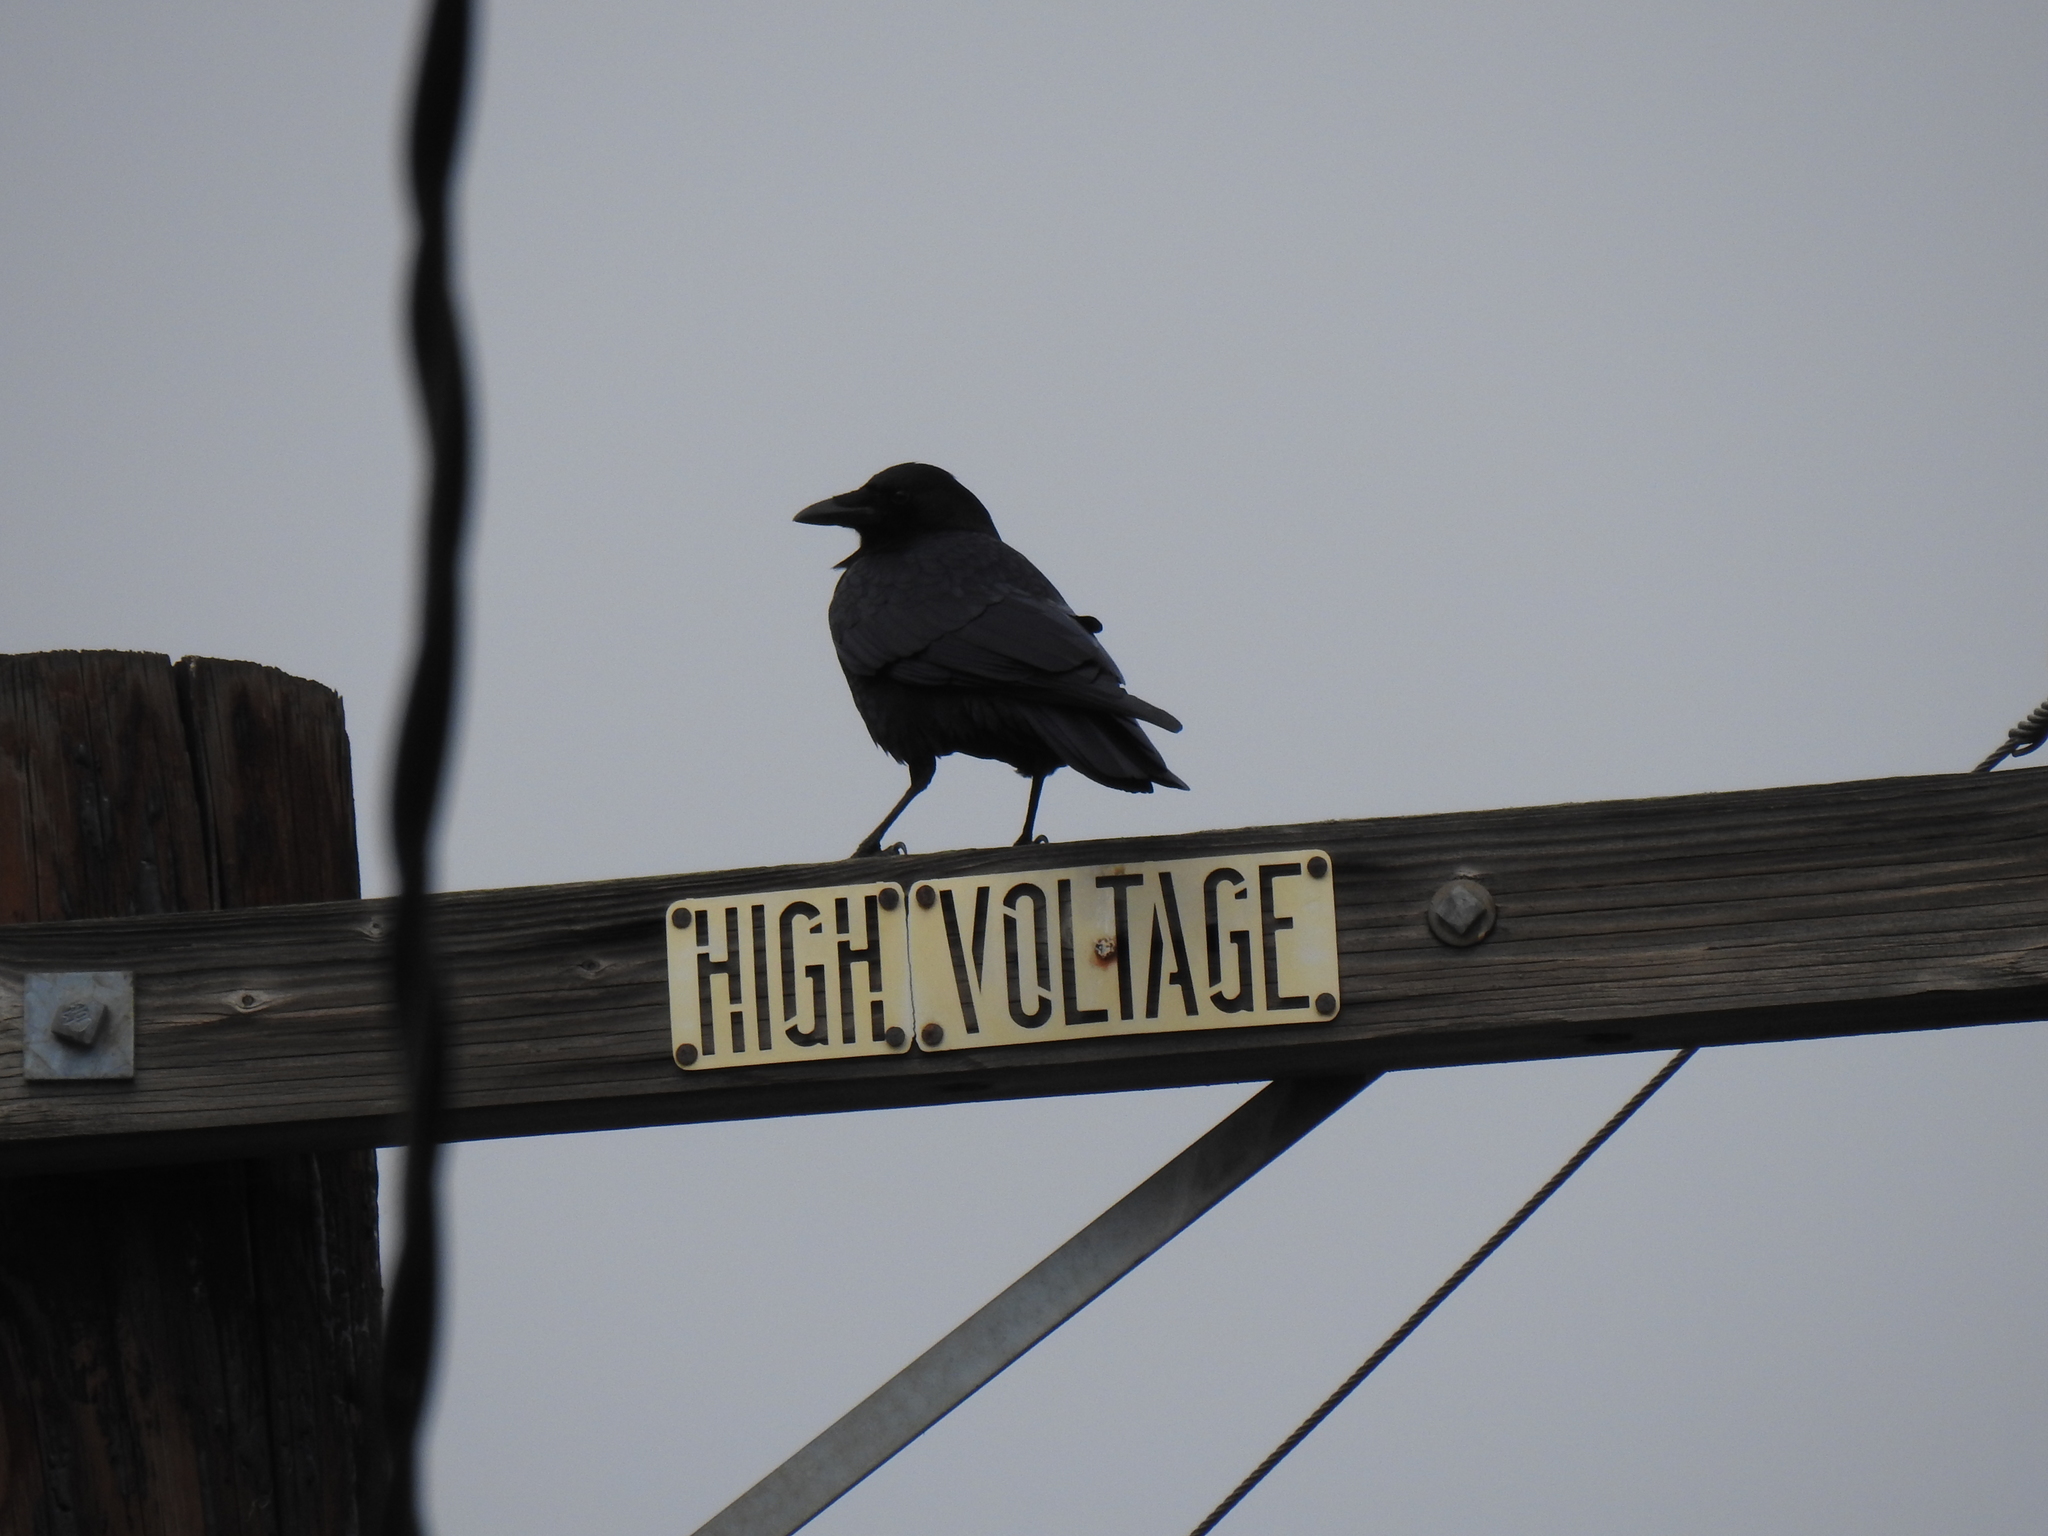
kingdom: Animalia
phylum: Chordata
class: Aves
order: Passeriformes
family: Corvidae
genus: Corvus
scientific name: Corvus brachyrhynchos
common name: American crow
